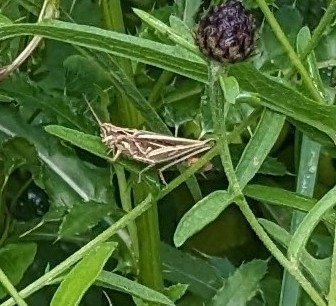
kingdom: Animalia
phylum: Arthropoda
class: Insecta
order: Orthoptera
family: Acrididae
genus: Chorthippus
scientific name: Chorthippus brunneus
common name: Field grasshopper
